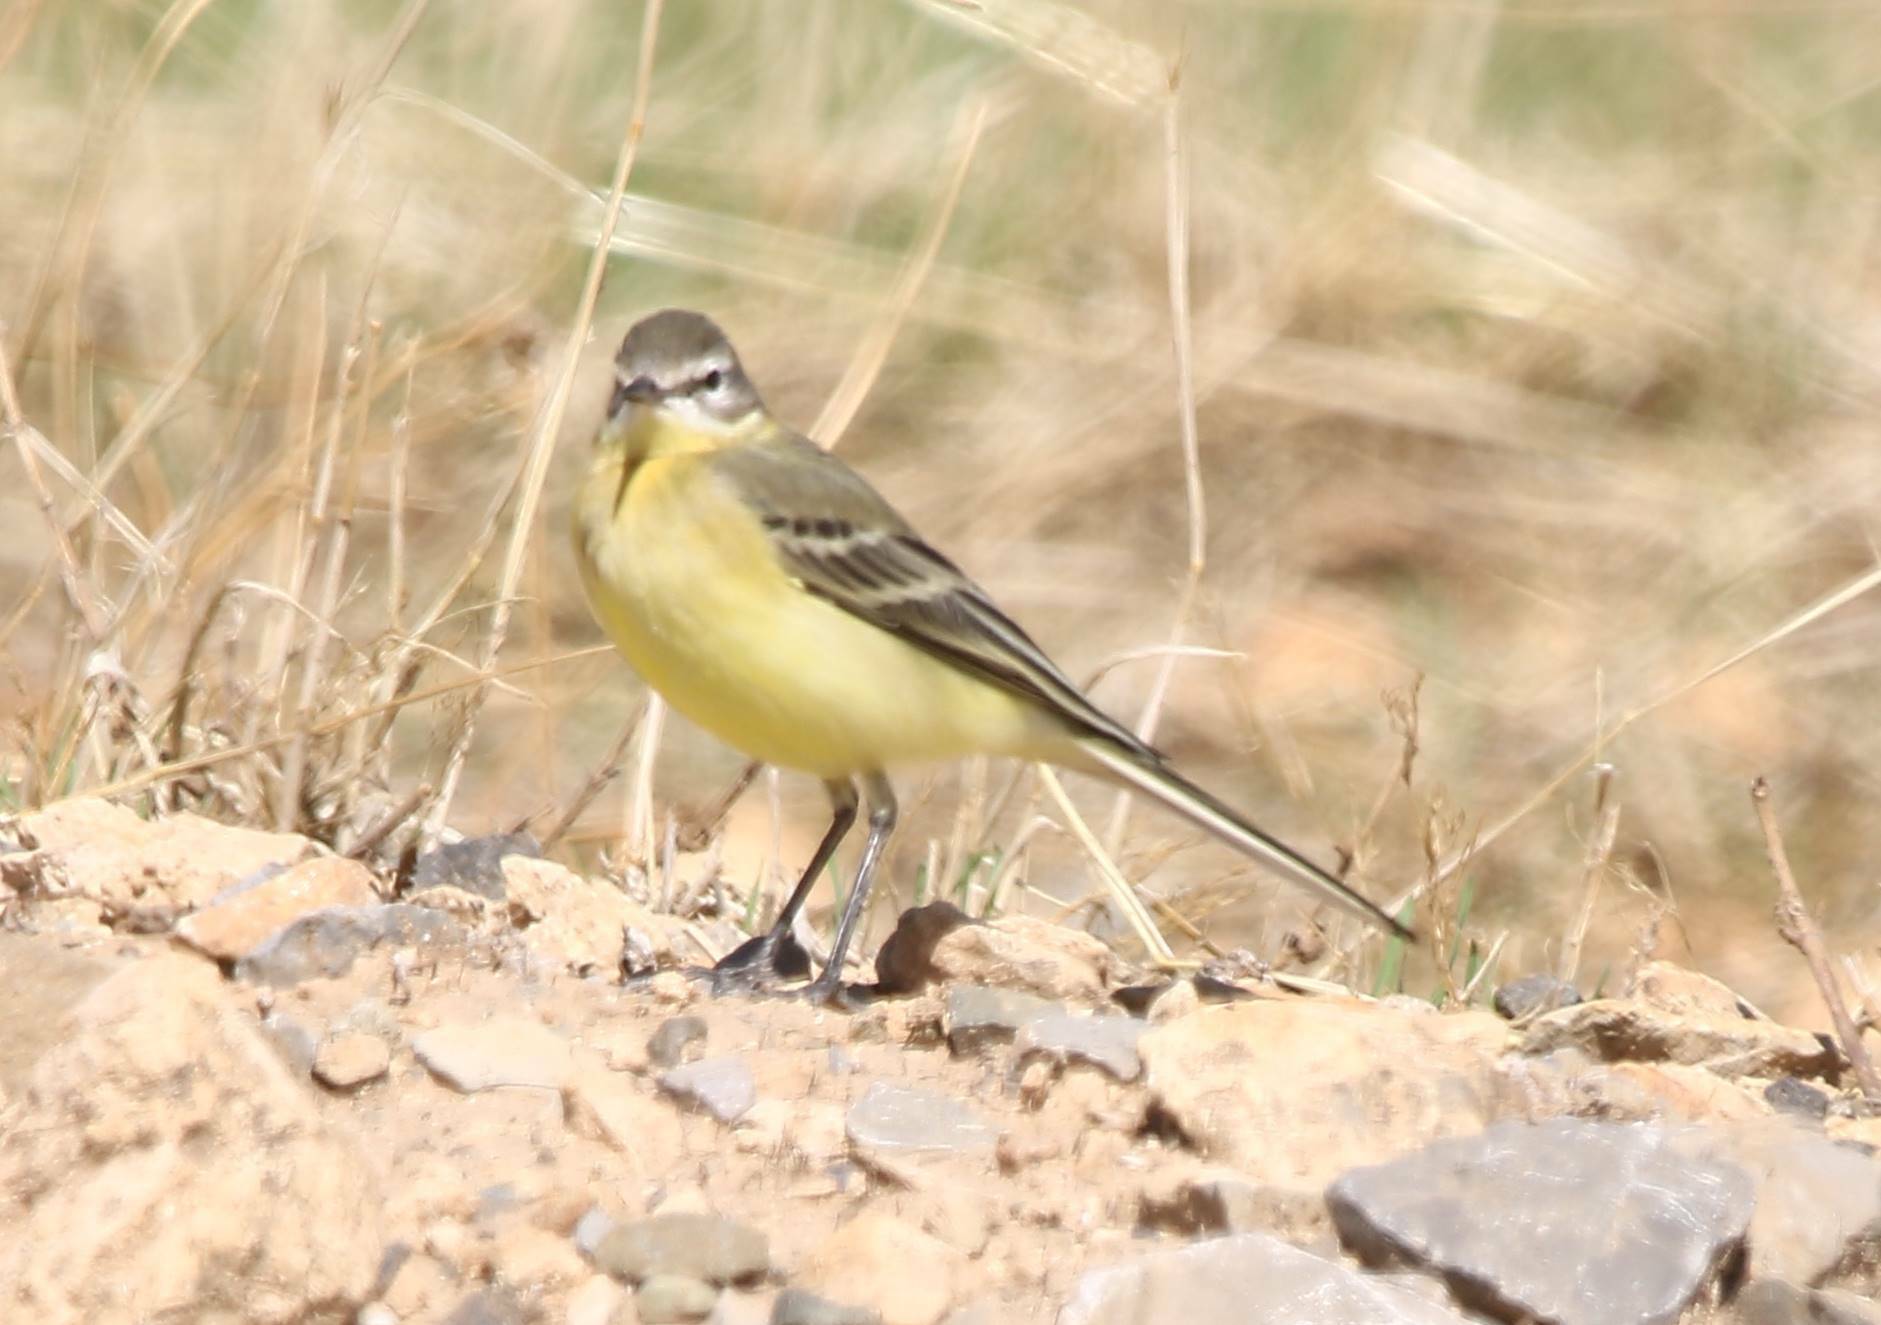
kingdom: Animalia
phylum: Chordata
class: Aves
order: Passeriformes
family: Motacillidae
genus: Motacilla
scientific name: Motacilla flava
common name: Western yellow wagtail
